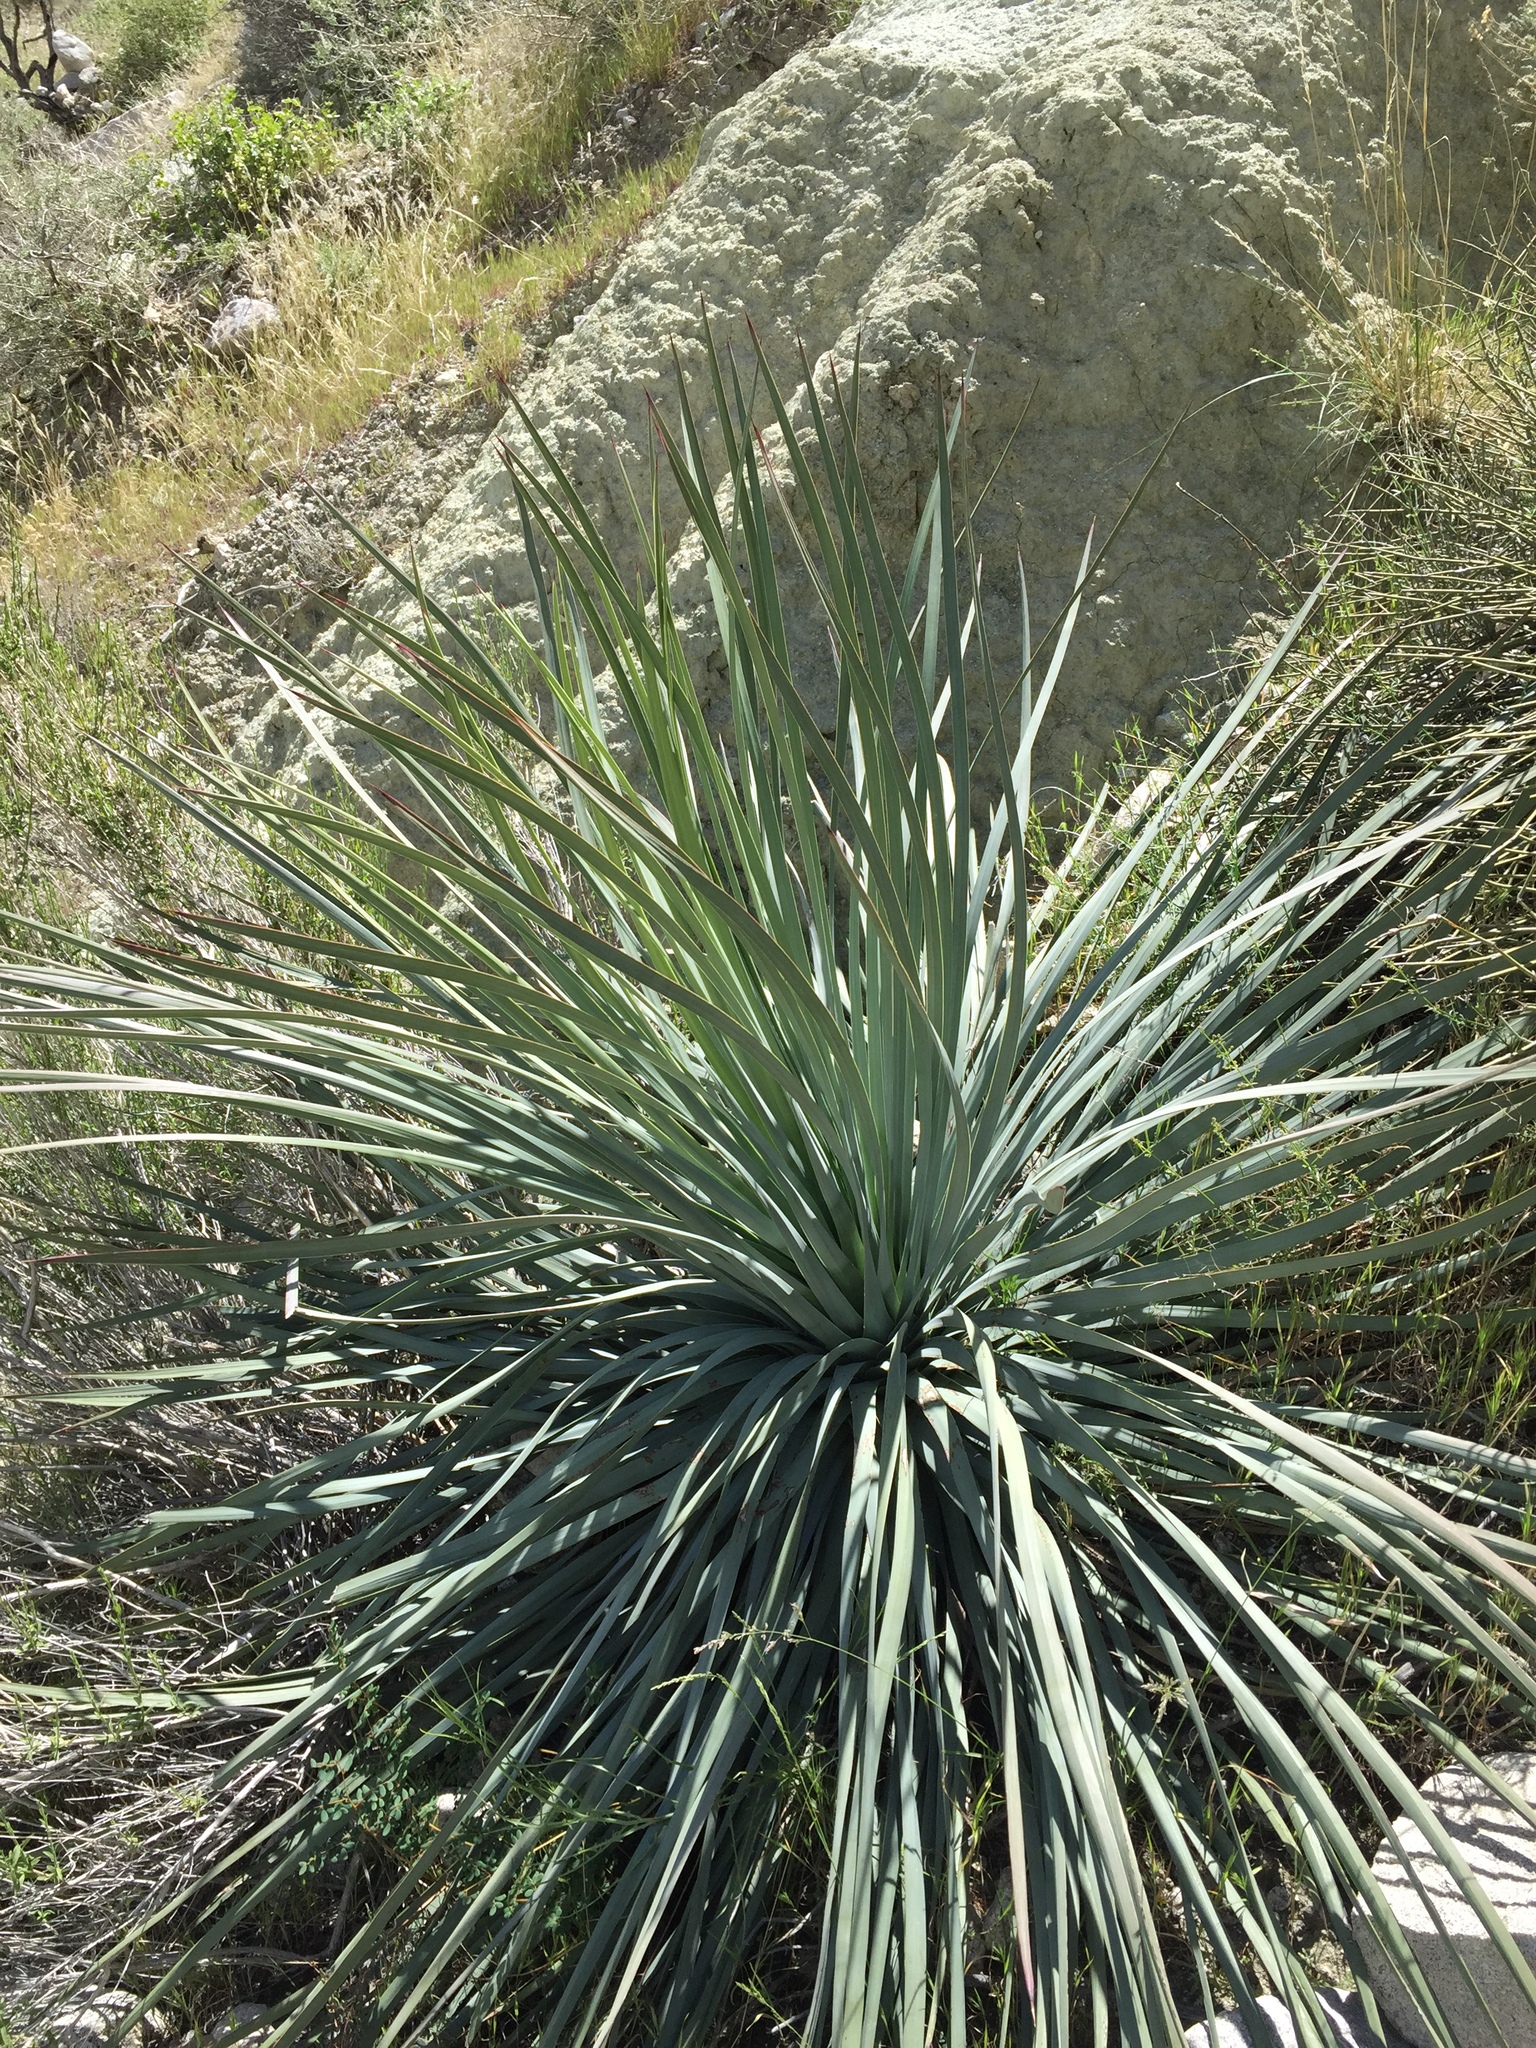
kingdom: Plantae
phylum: Tracheophyta
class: Liliopsida
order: Asparagales
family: Asparagaceae
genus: Hesperoyucca
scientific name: Hesperoyucca whipplei
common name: Our lord's-candle
